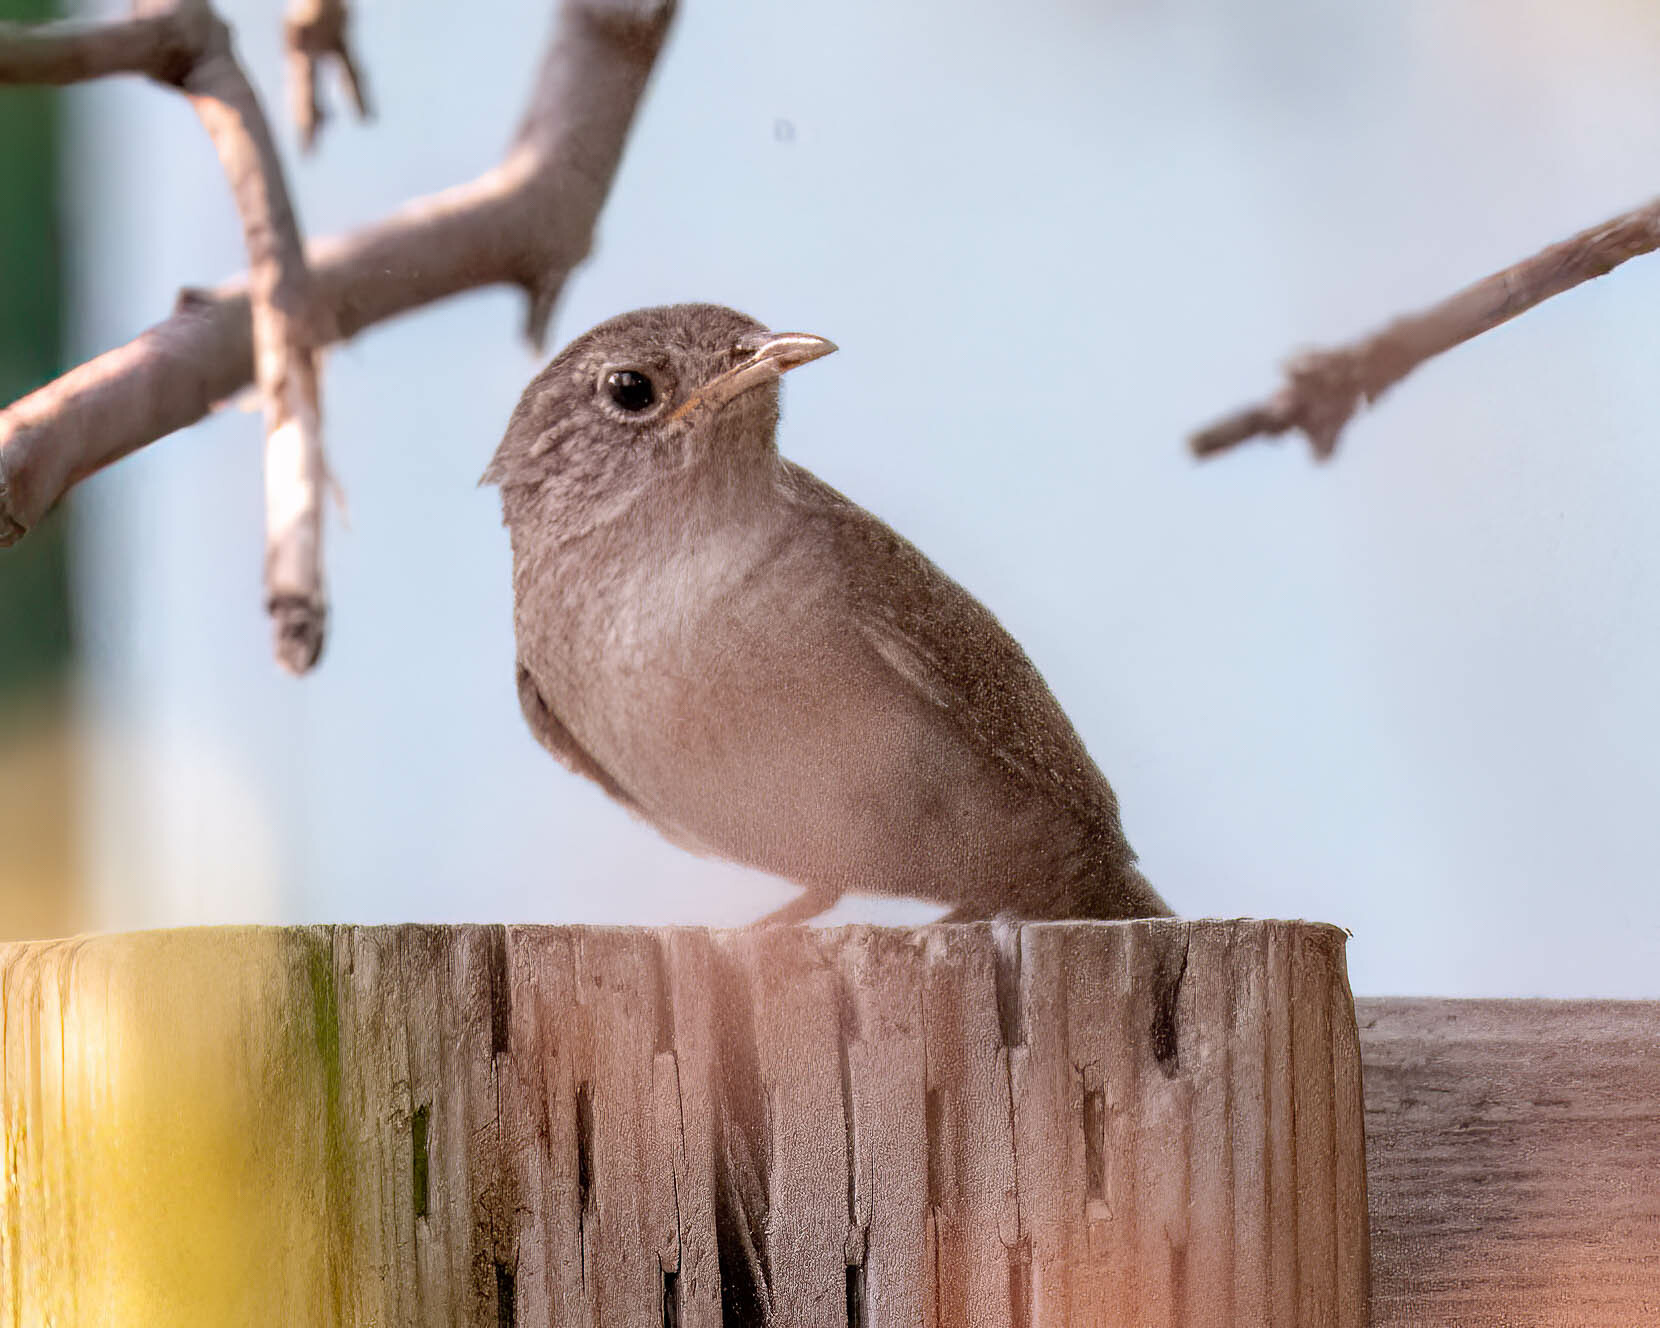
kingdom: Animalia
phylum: Chordata
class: Aves
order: Passeriformes
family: Troglodytidae
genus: Troglodytes
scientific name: Troglodytes aedon
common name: House wren
